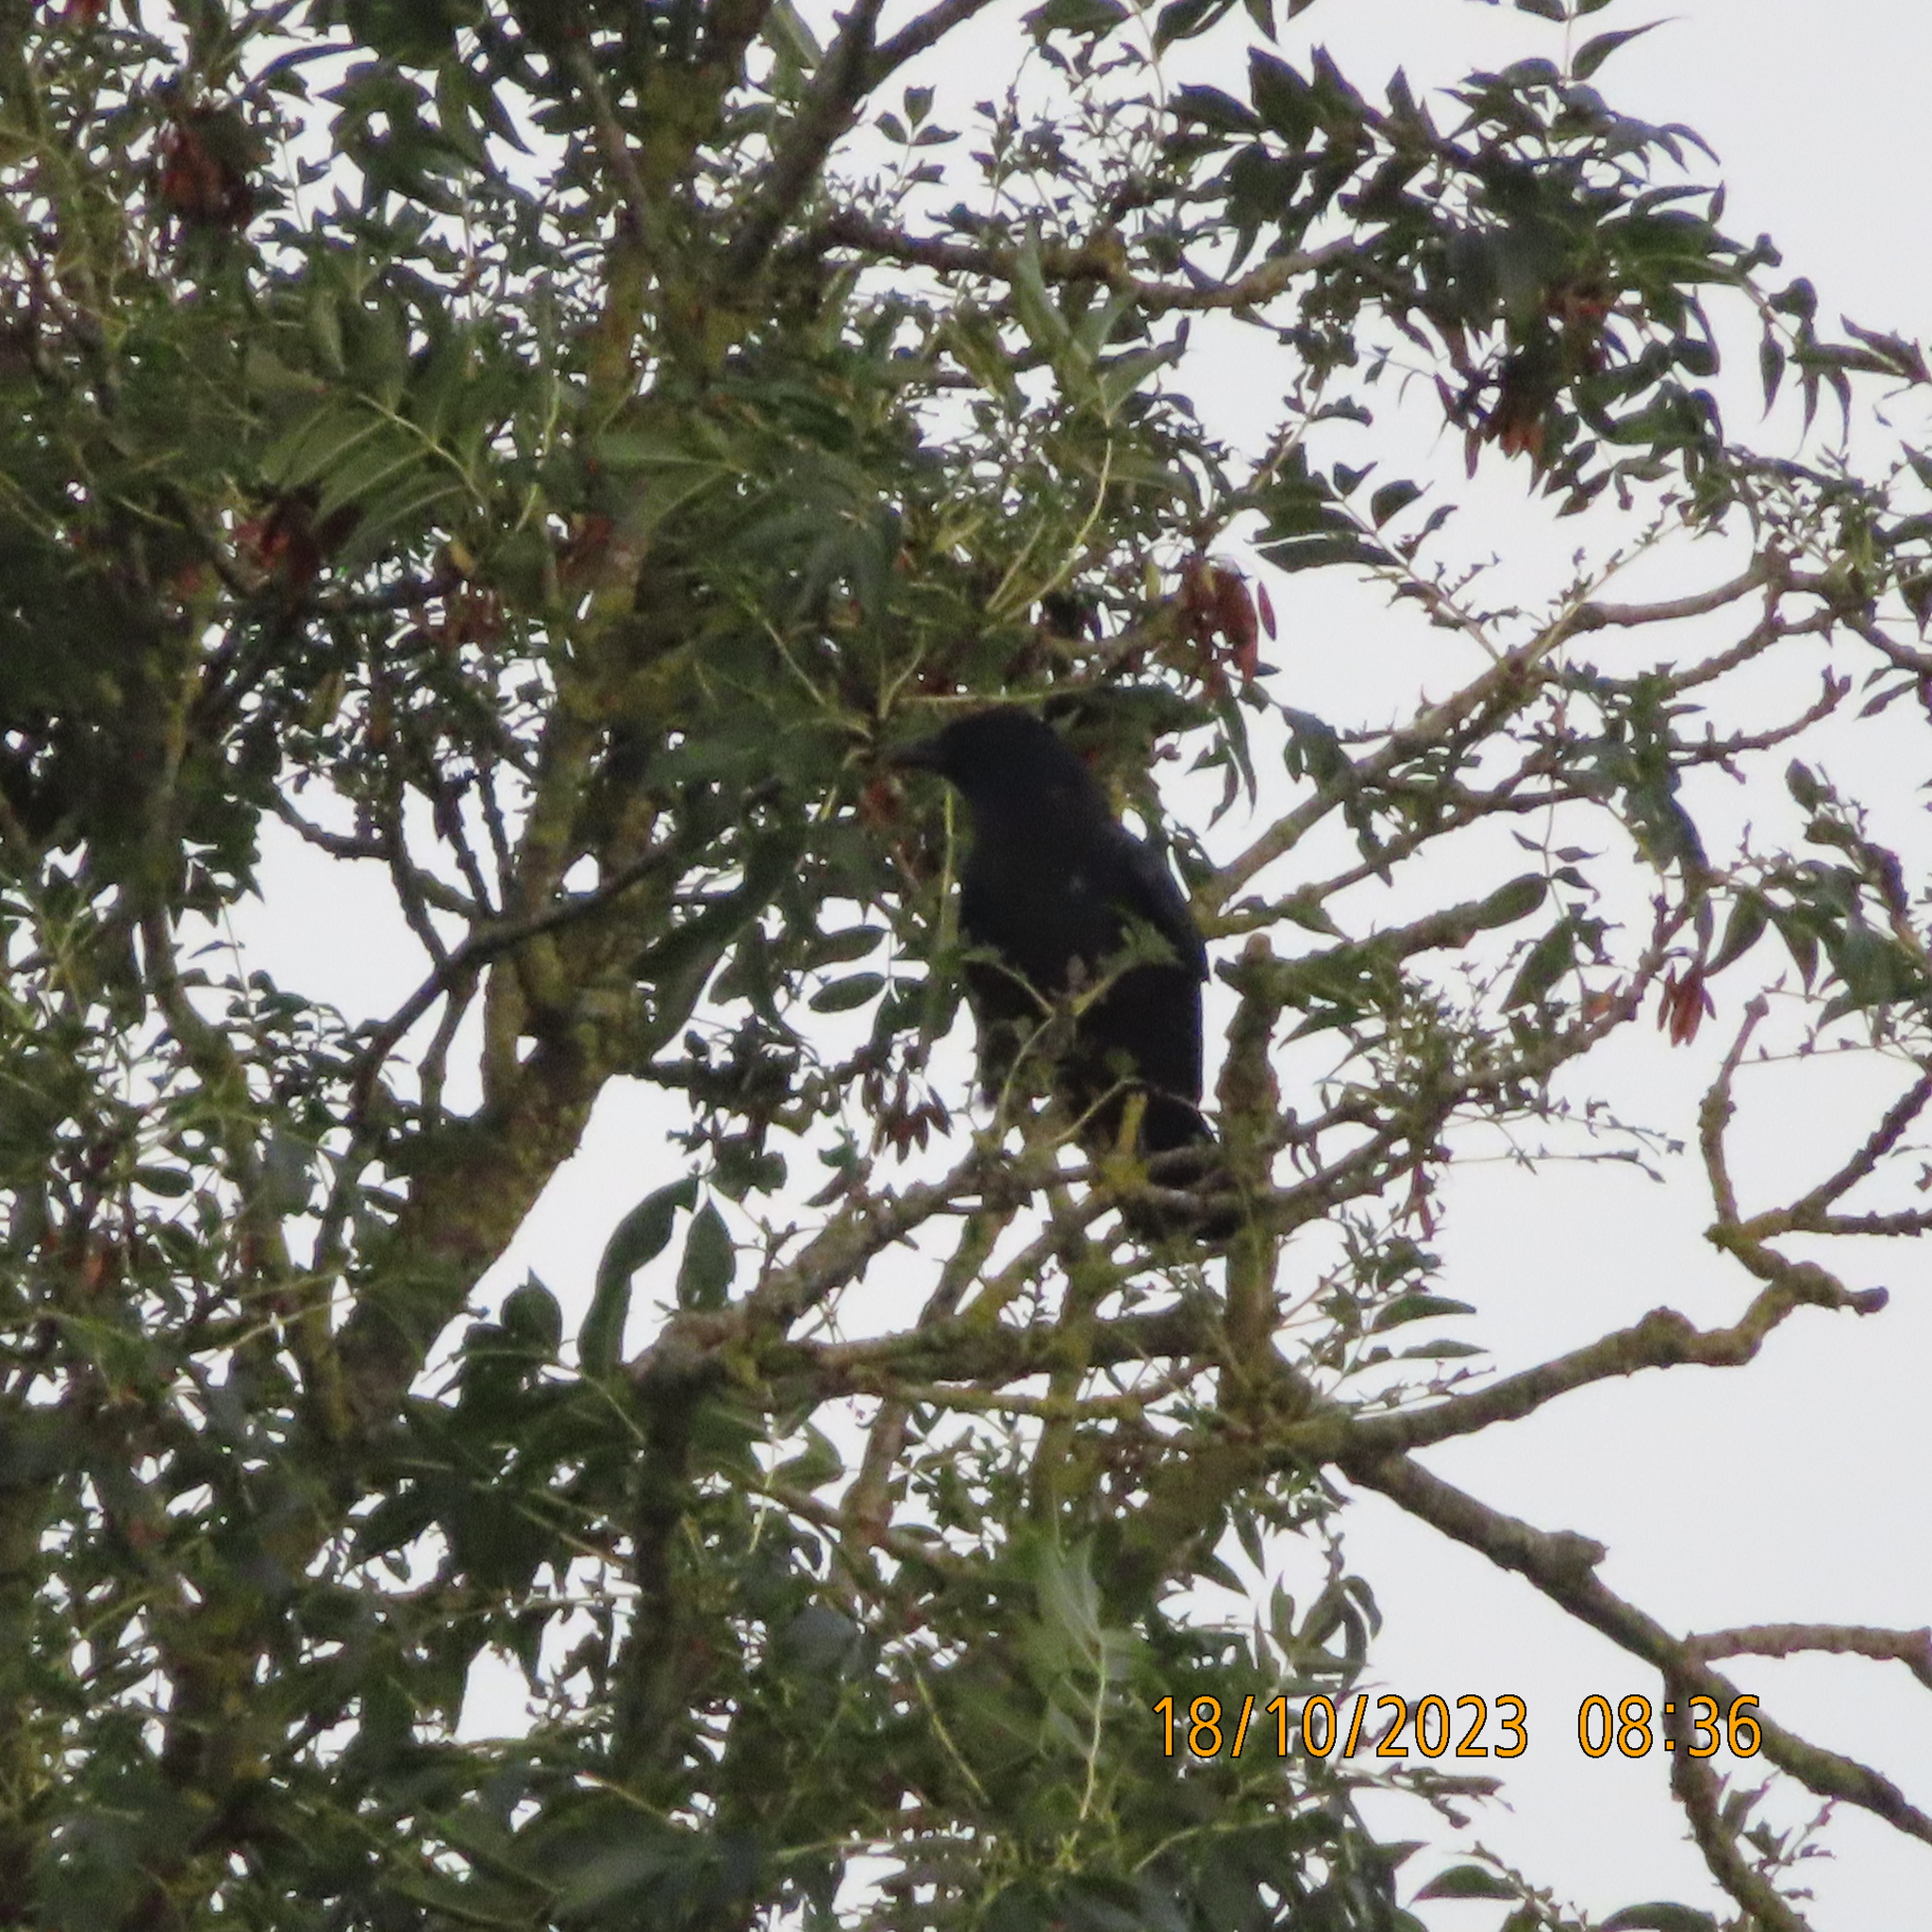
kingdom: Animalia
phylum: Chordata
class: Aves
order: Passeriformes
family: Corvidae
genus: Corvus
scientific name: Corvus corone
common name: Carrion crow
